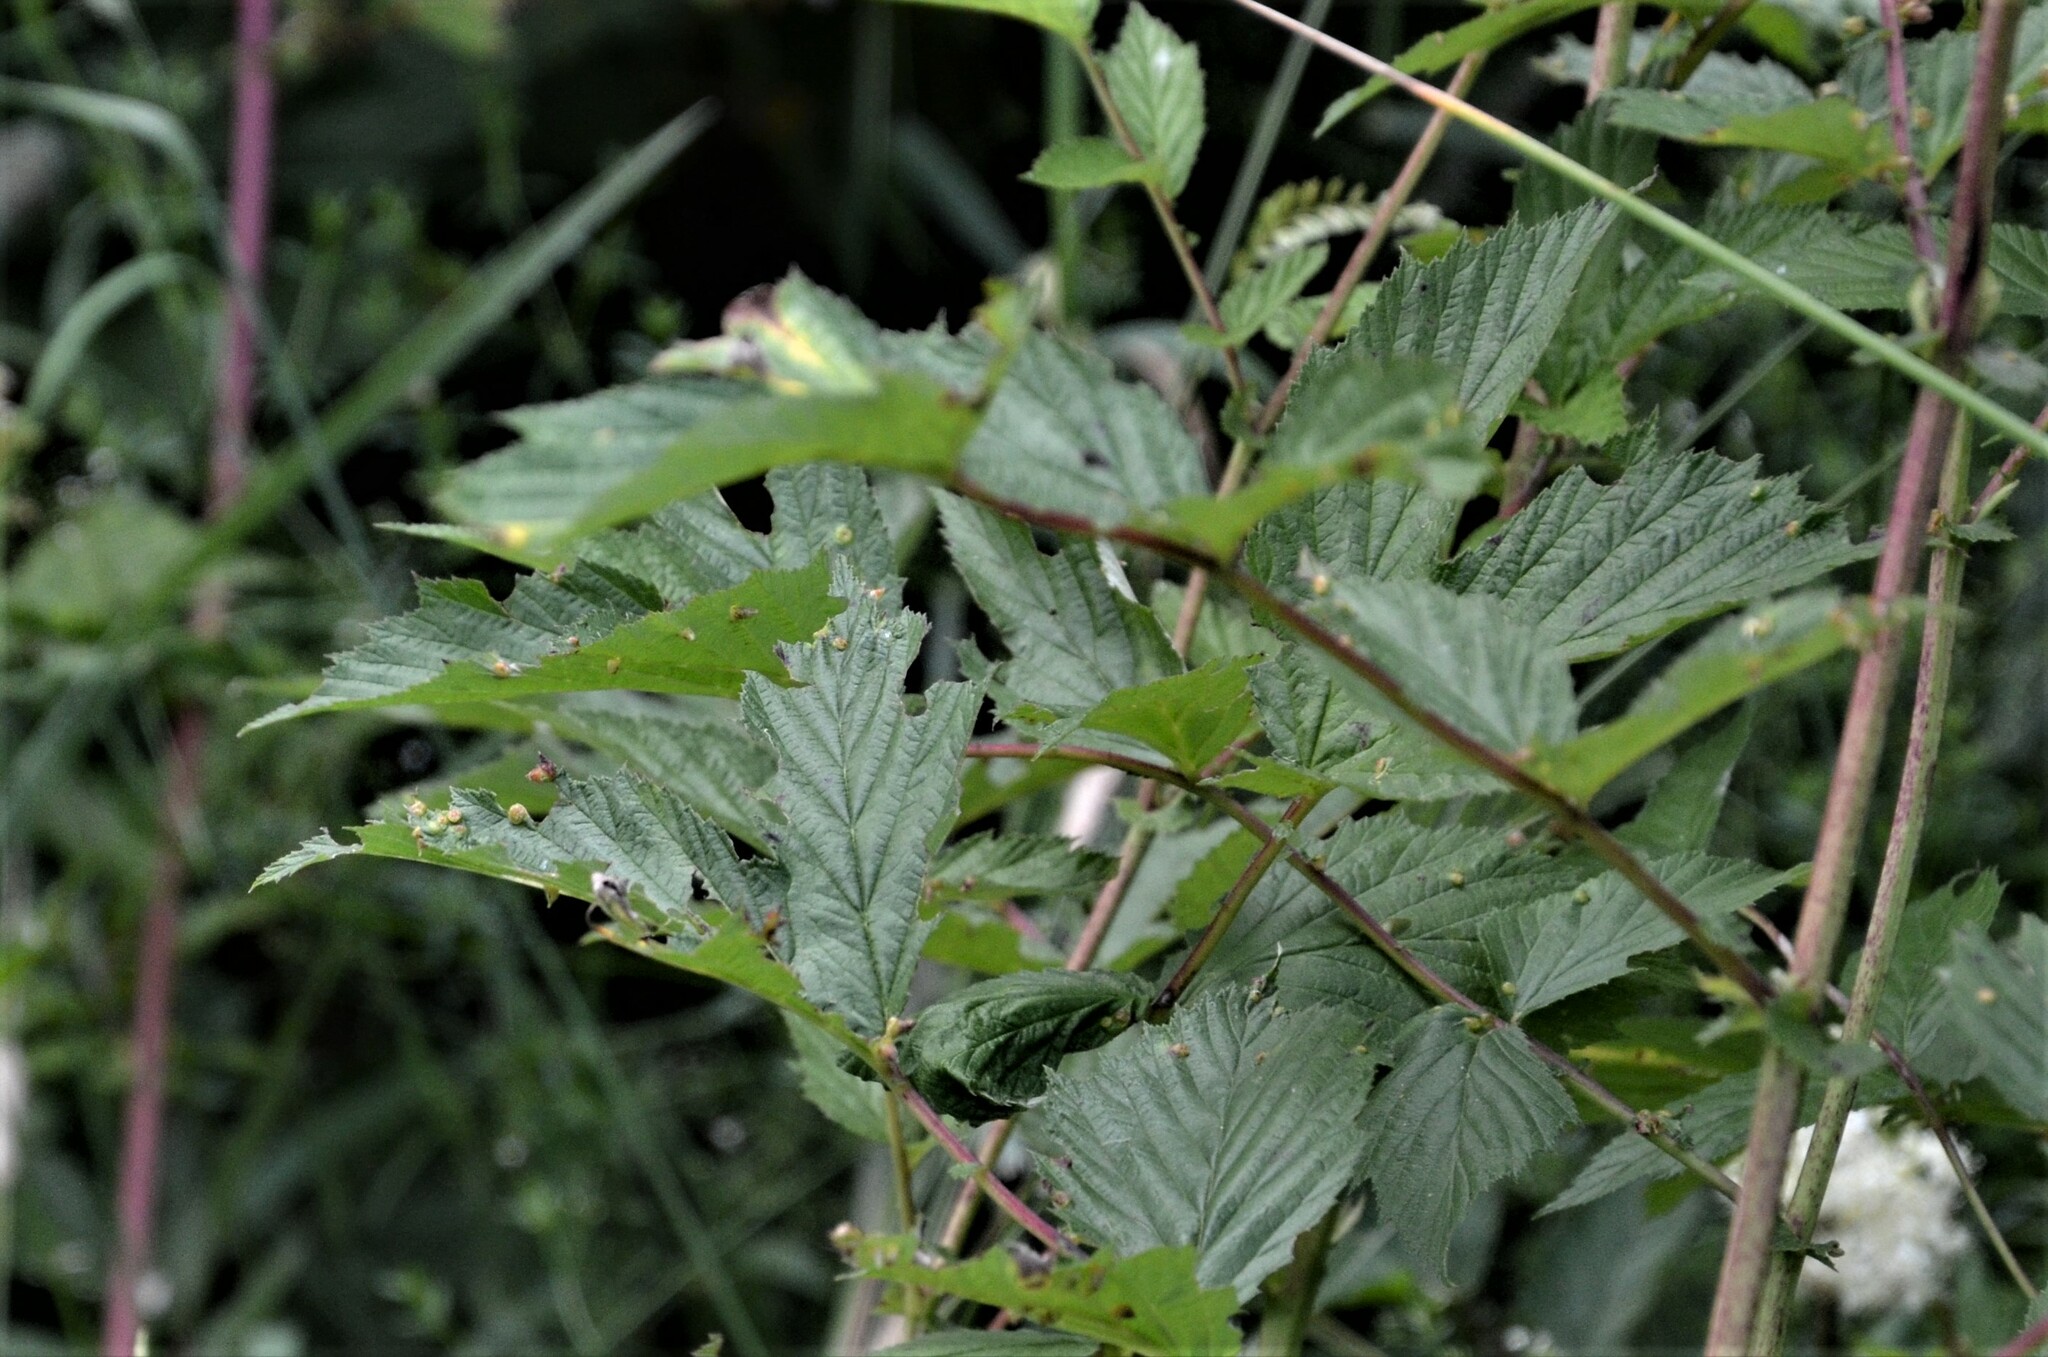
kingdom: Plantae
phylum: Tracheophyta
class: Magnoliopsida
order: Rosales
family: Rosaceae
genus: Filipendula
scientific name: Filipendula ulmaria
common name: Meadowsweet
